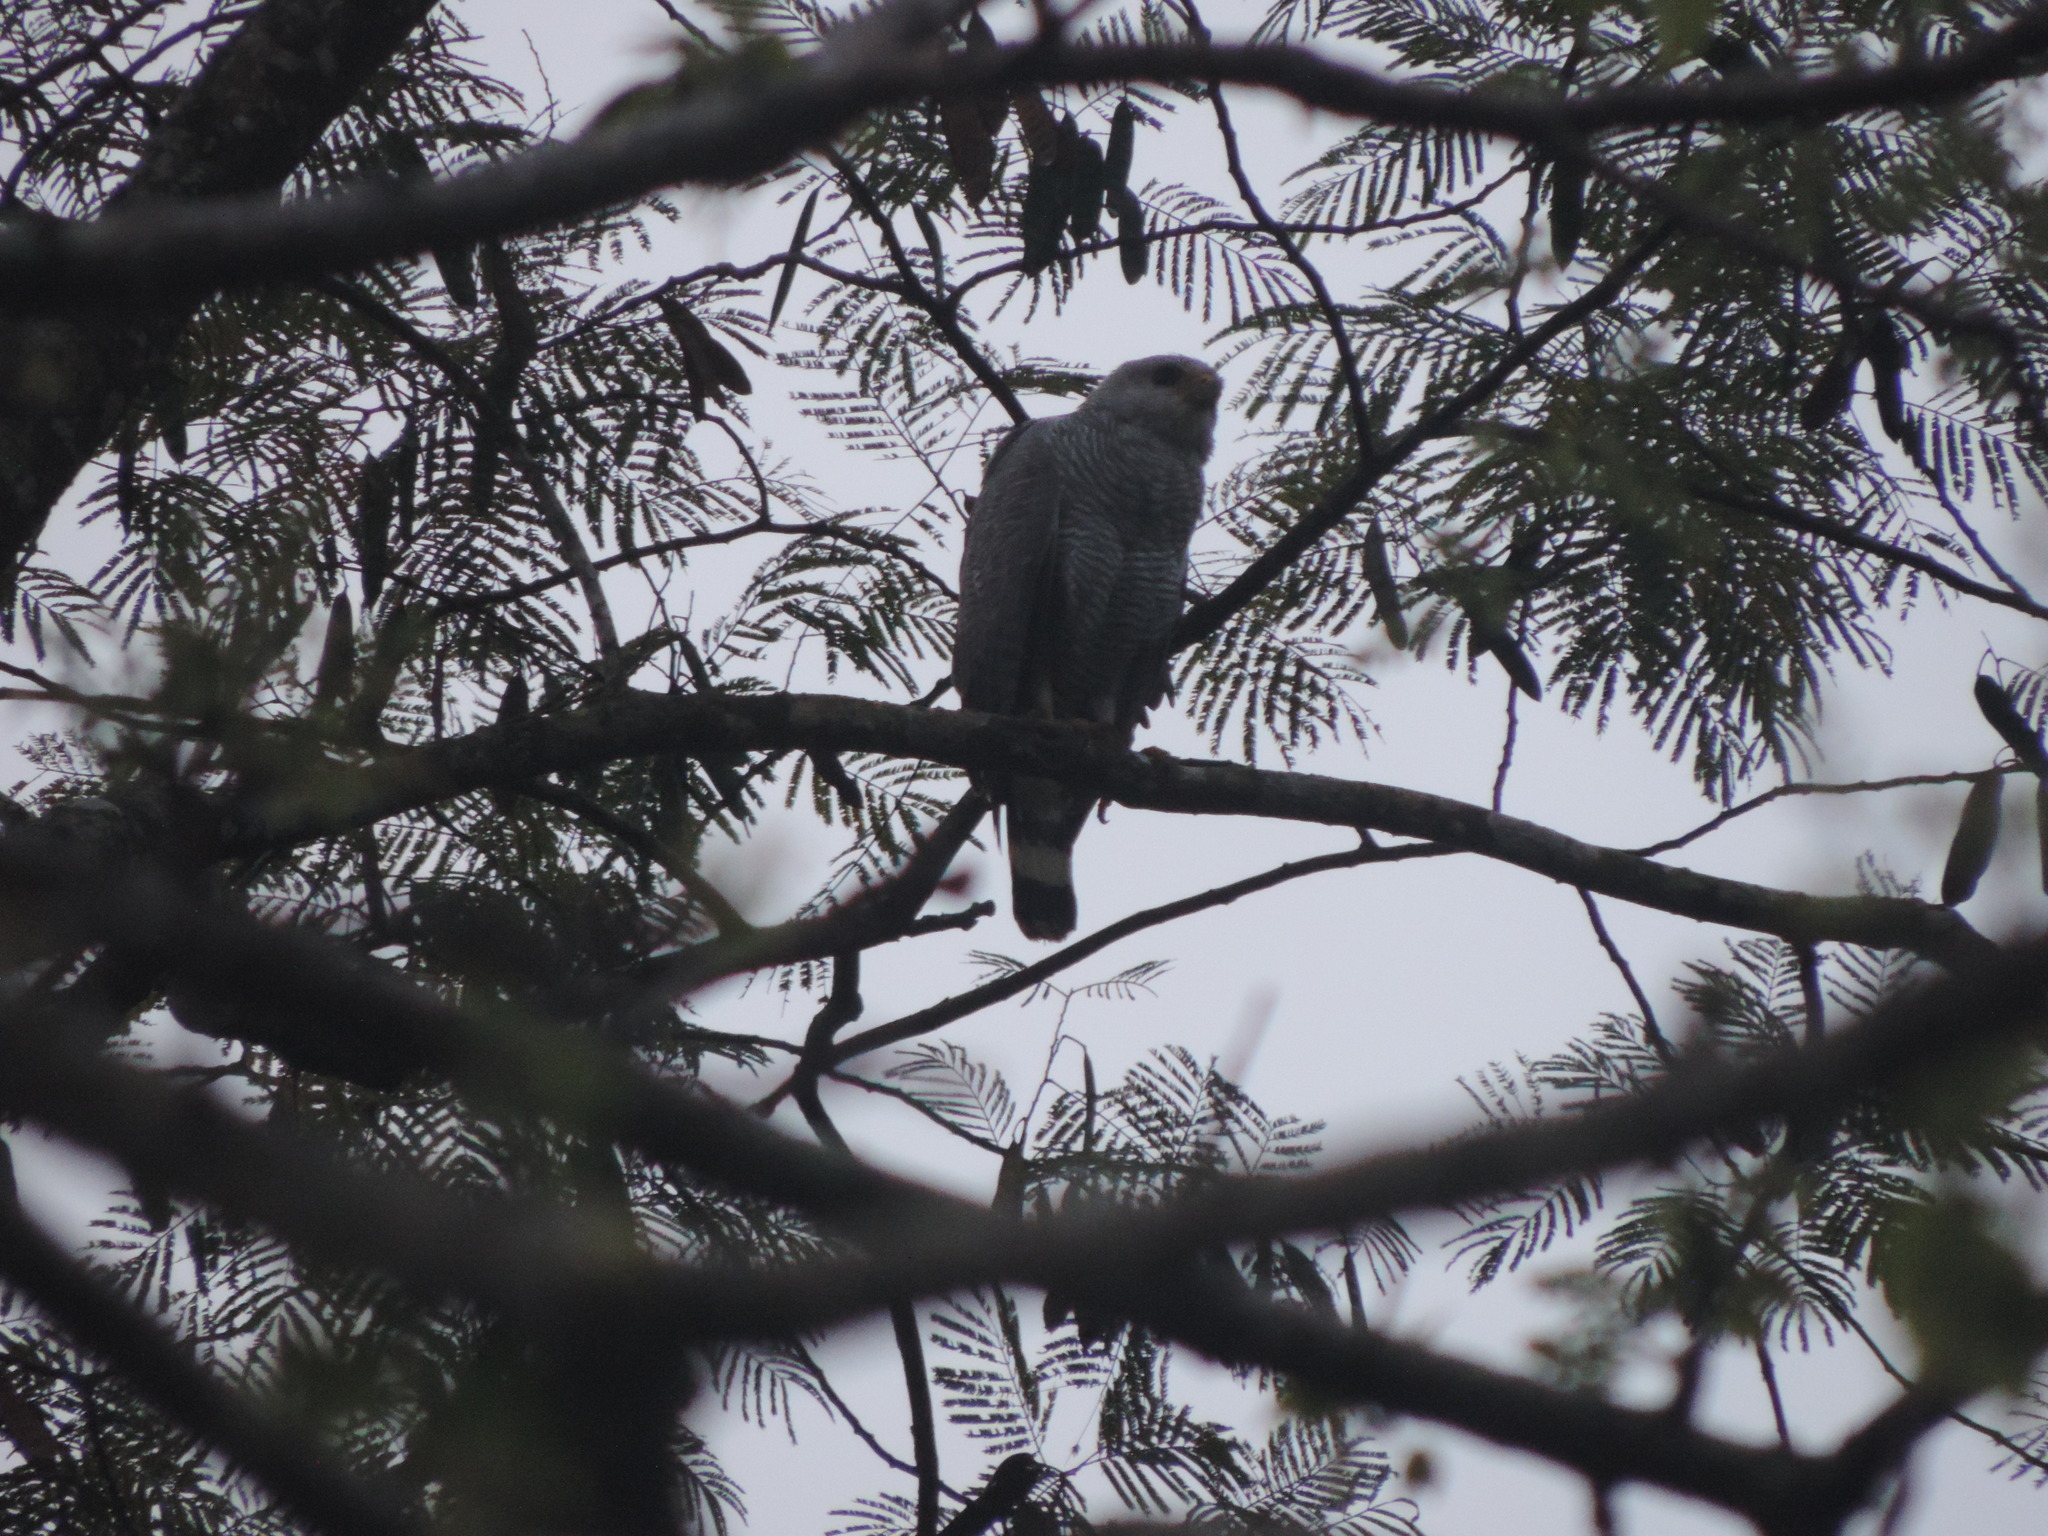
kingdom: Animalia
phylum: Chordata
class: Aves
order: Accipitriformes
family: Accipitridae
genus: Buteo
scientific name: Buteo nitidus
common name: Grey-lined hawk
